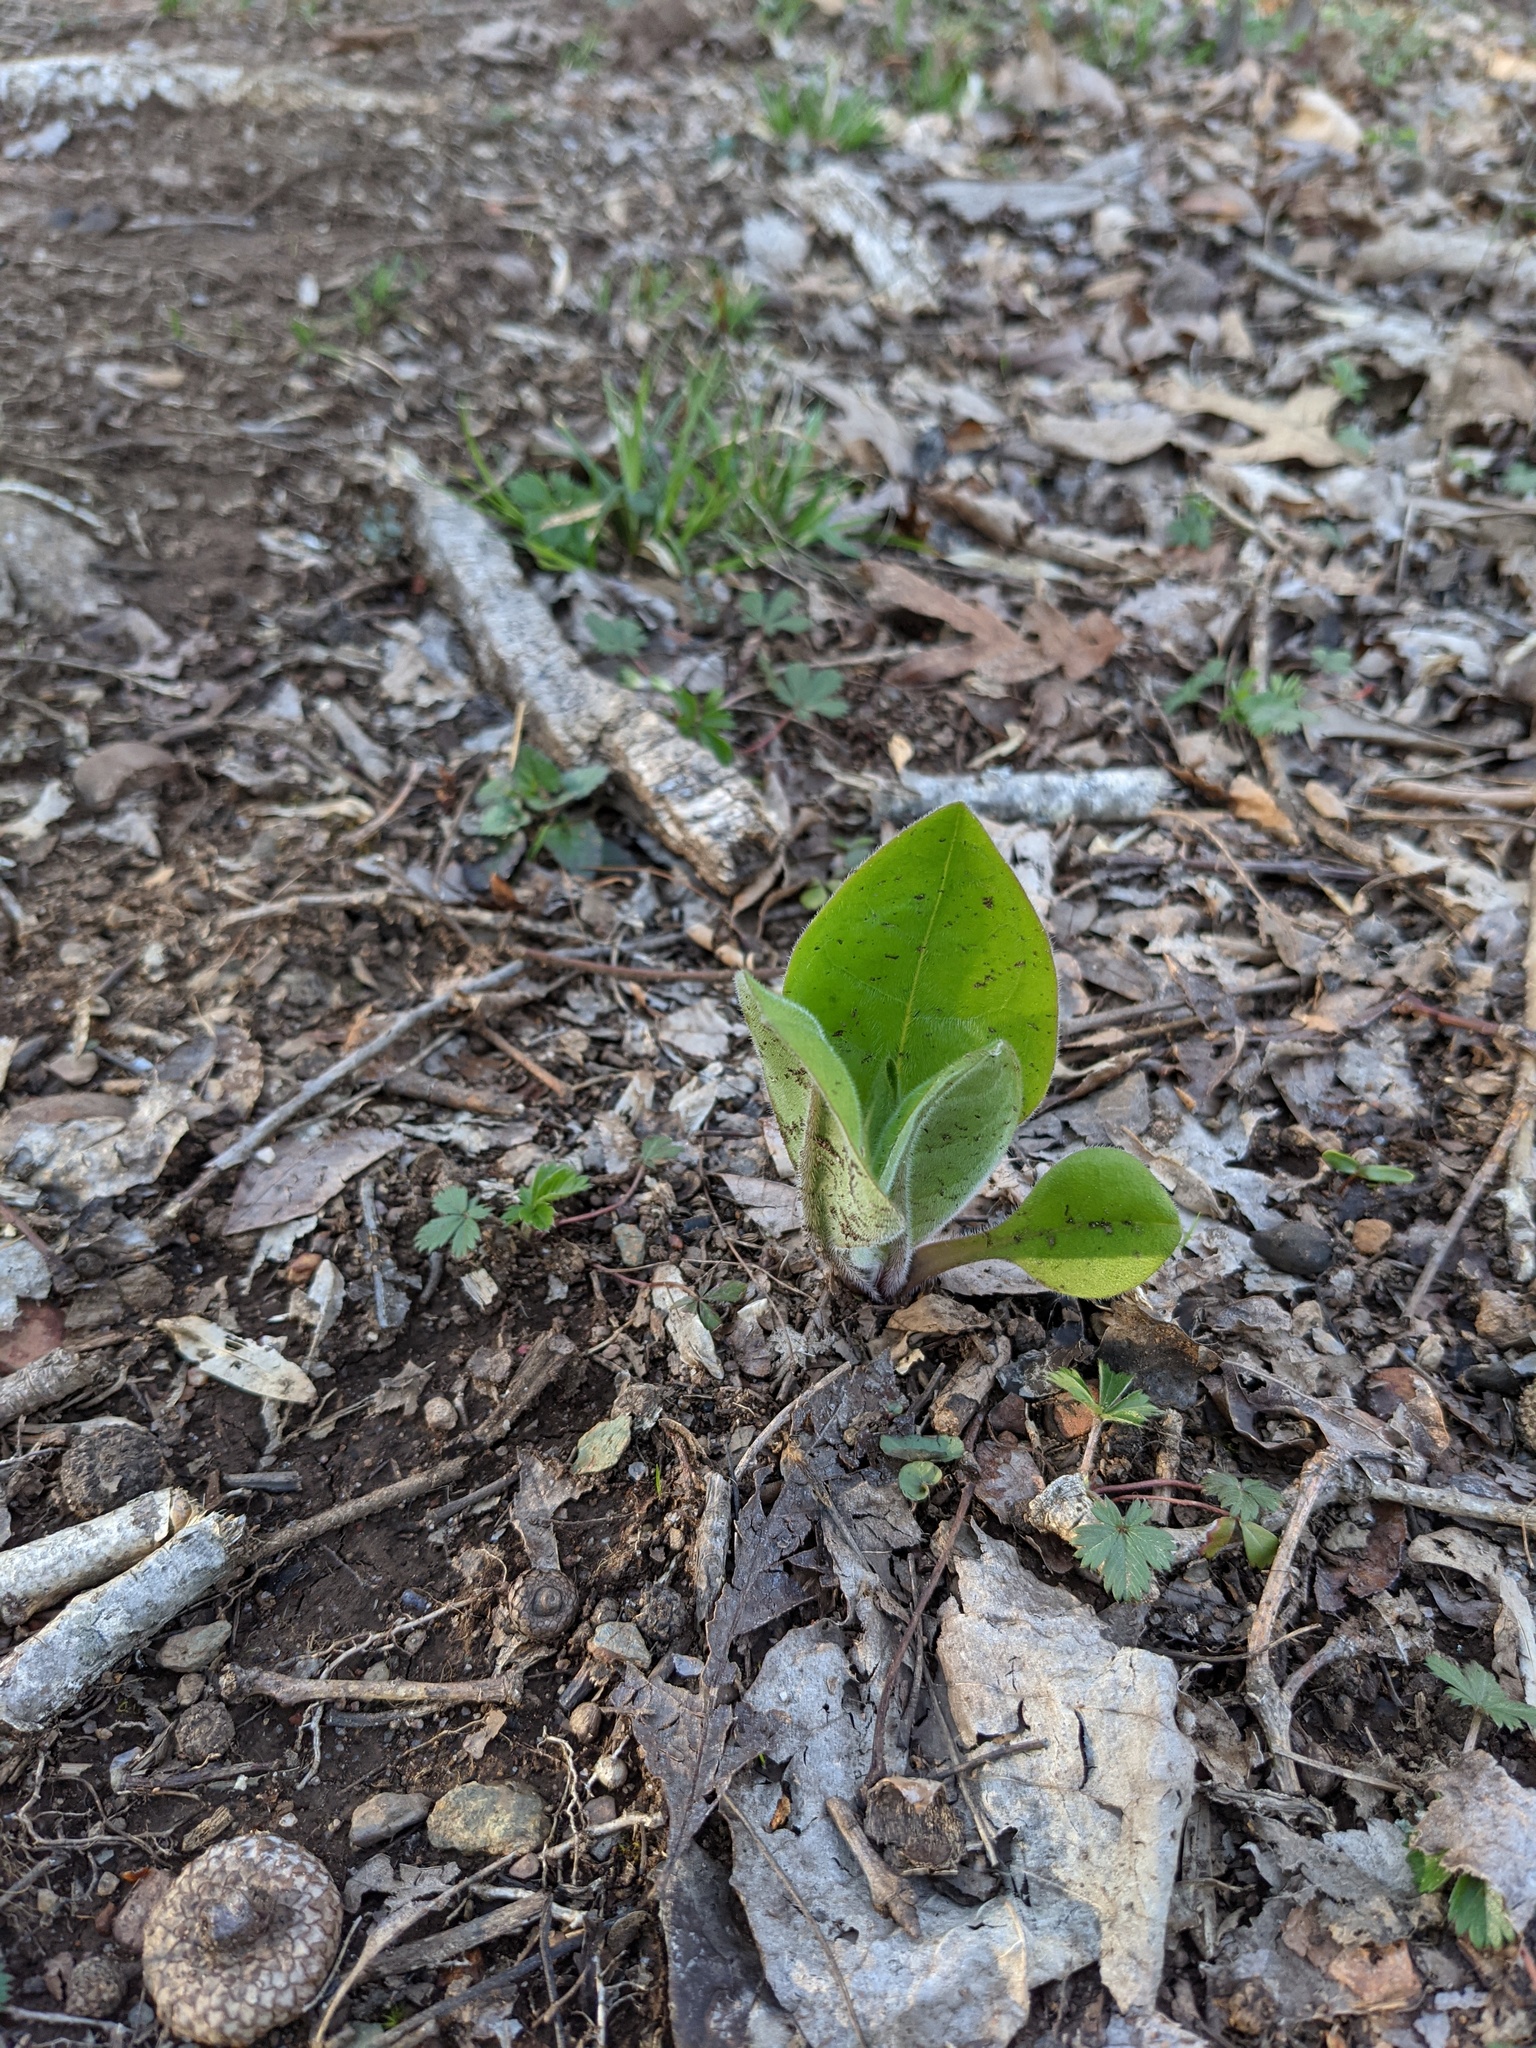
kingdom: Plantae
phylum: Tracheophyta
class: Magnoliopsida
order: Boraginales
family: Boraginaceae
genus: Andersonglossum
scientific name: Andersonglossum virginianum
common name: Wild comfrey
